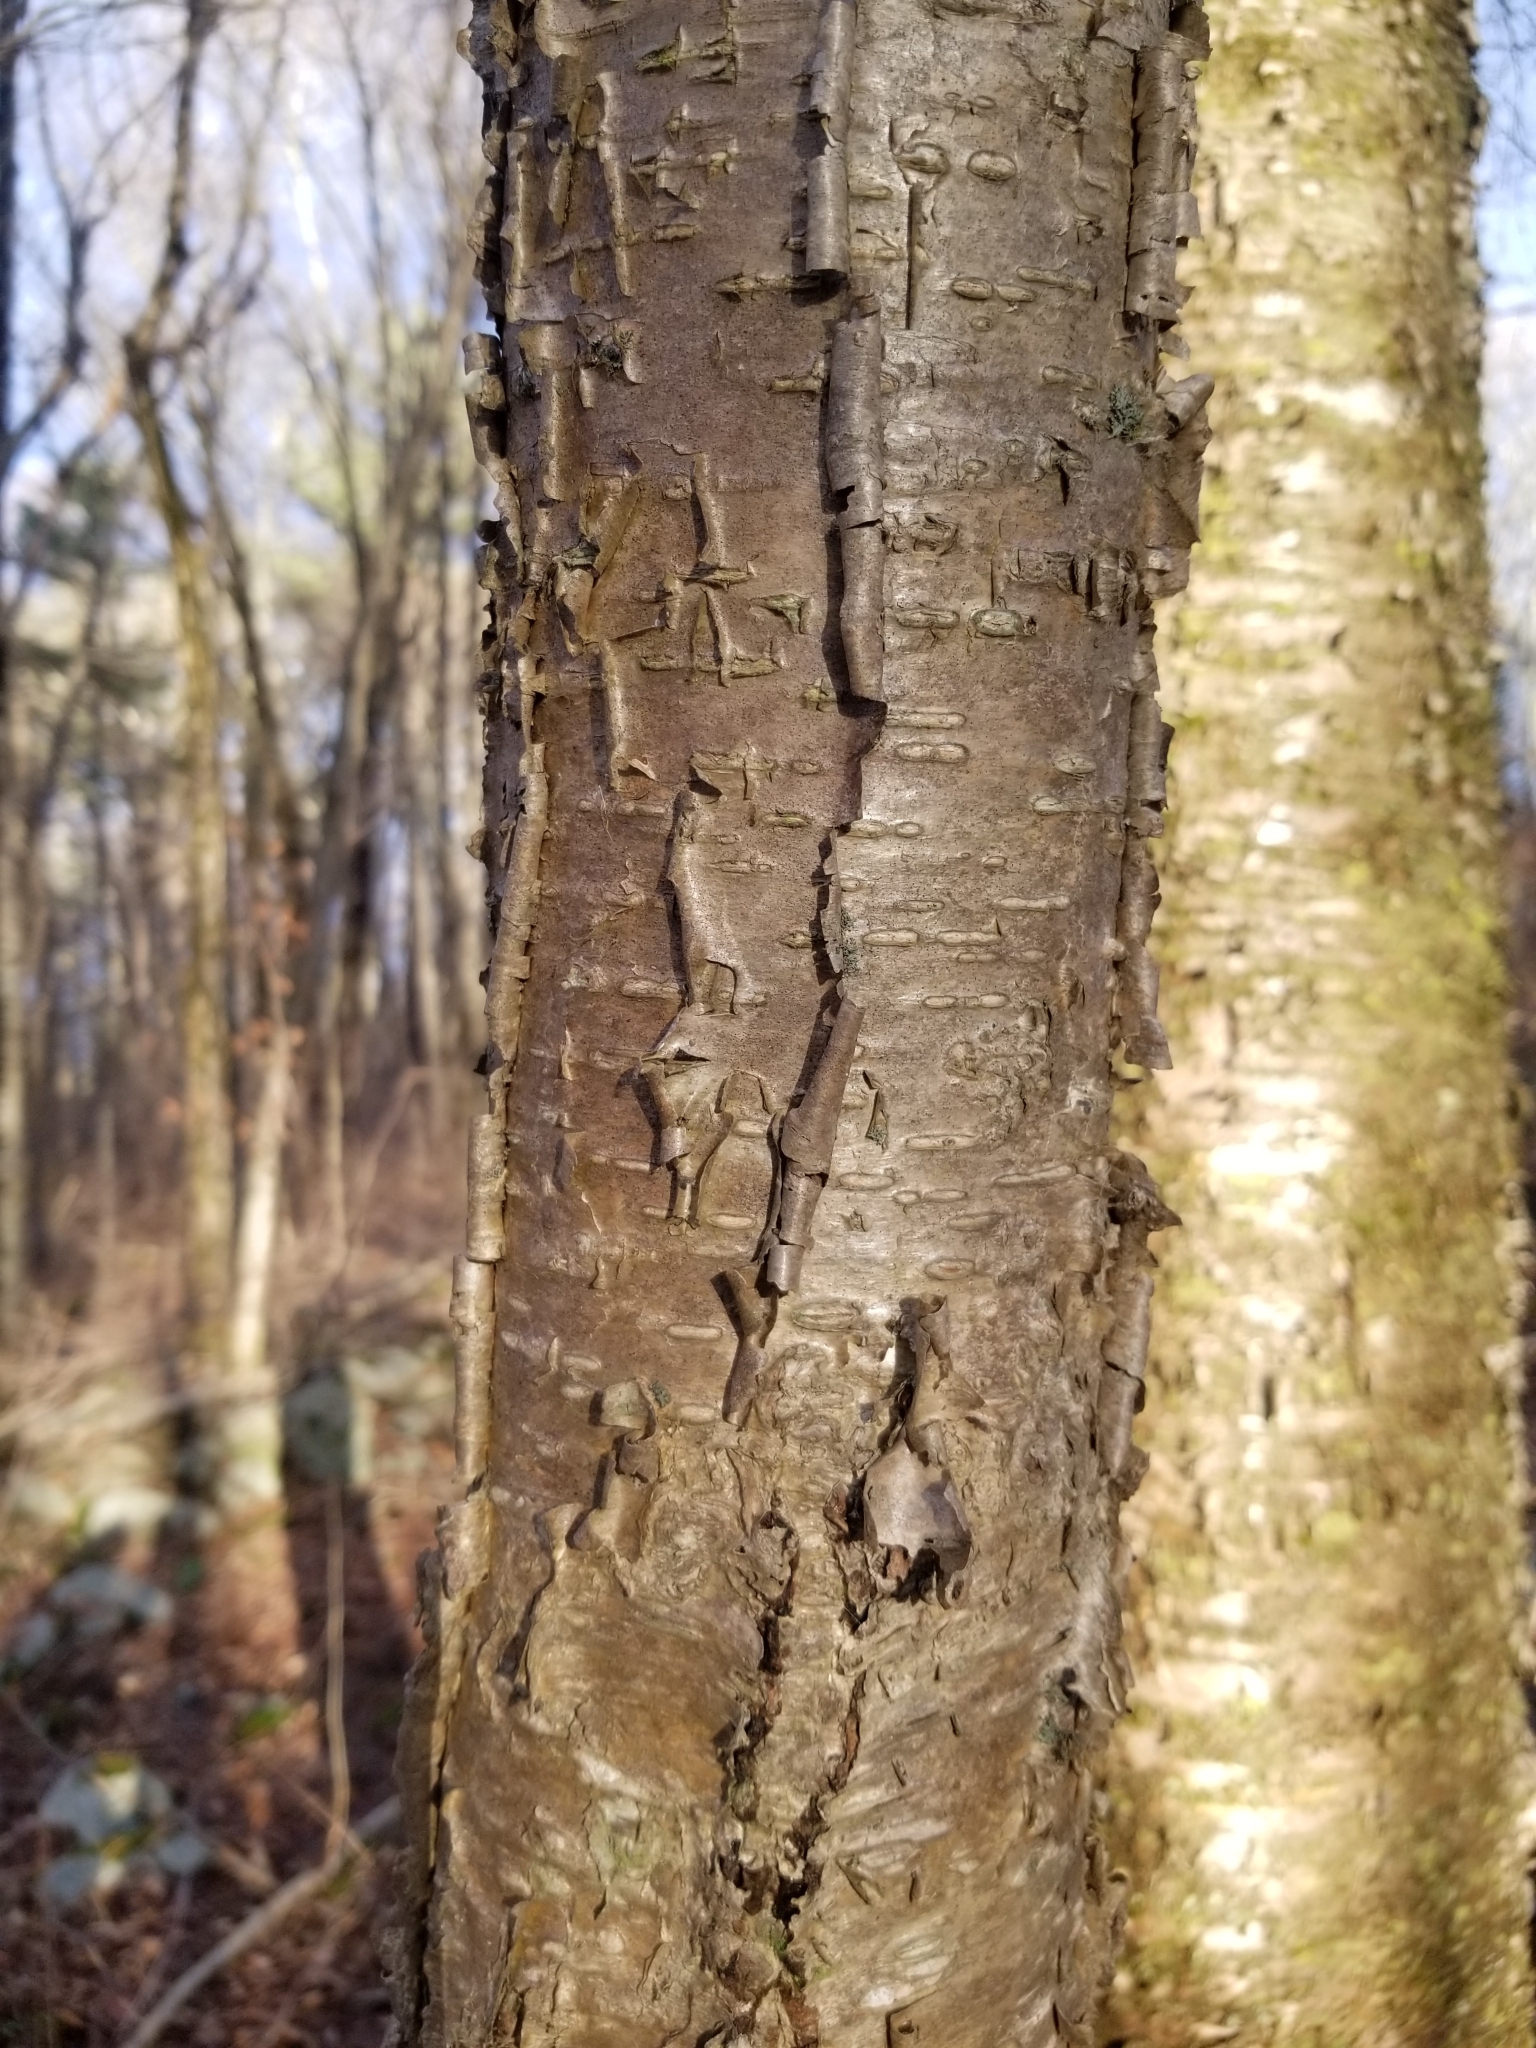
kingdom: Plantae
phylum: Tracheophyta
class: Magnoliopsida
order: Fagales
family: Betulaceae
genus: Betula
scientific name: Betula alleghaniensis
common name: Yellow birch
